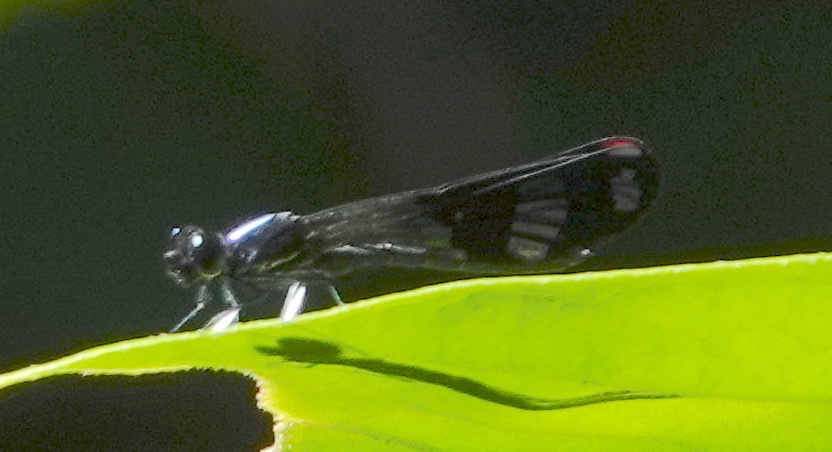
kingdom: Animalia
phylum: Arthropoda
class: Insecta
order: Odonata
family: Chlorocyphidae
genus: Aristocypha
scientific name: Aristocypha fenestrella
